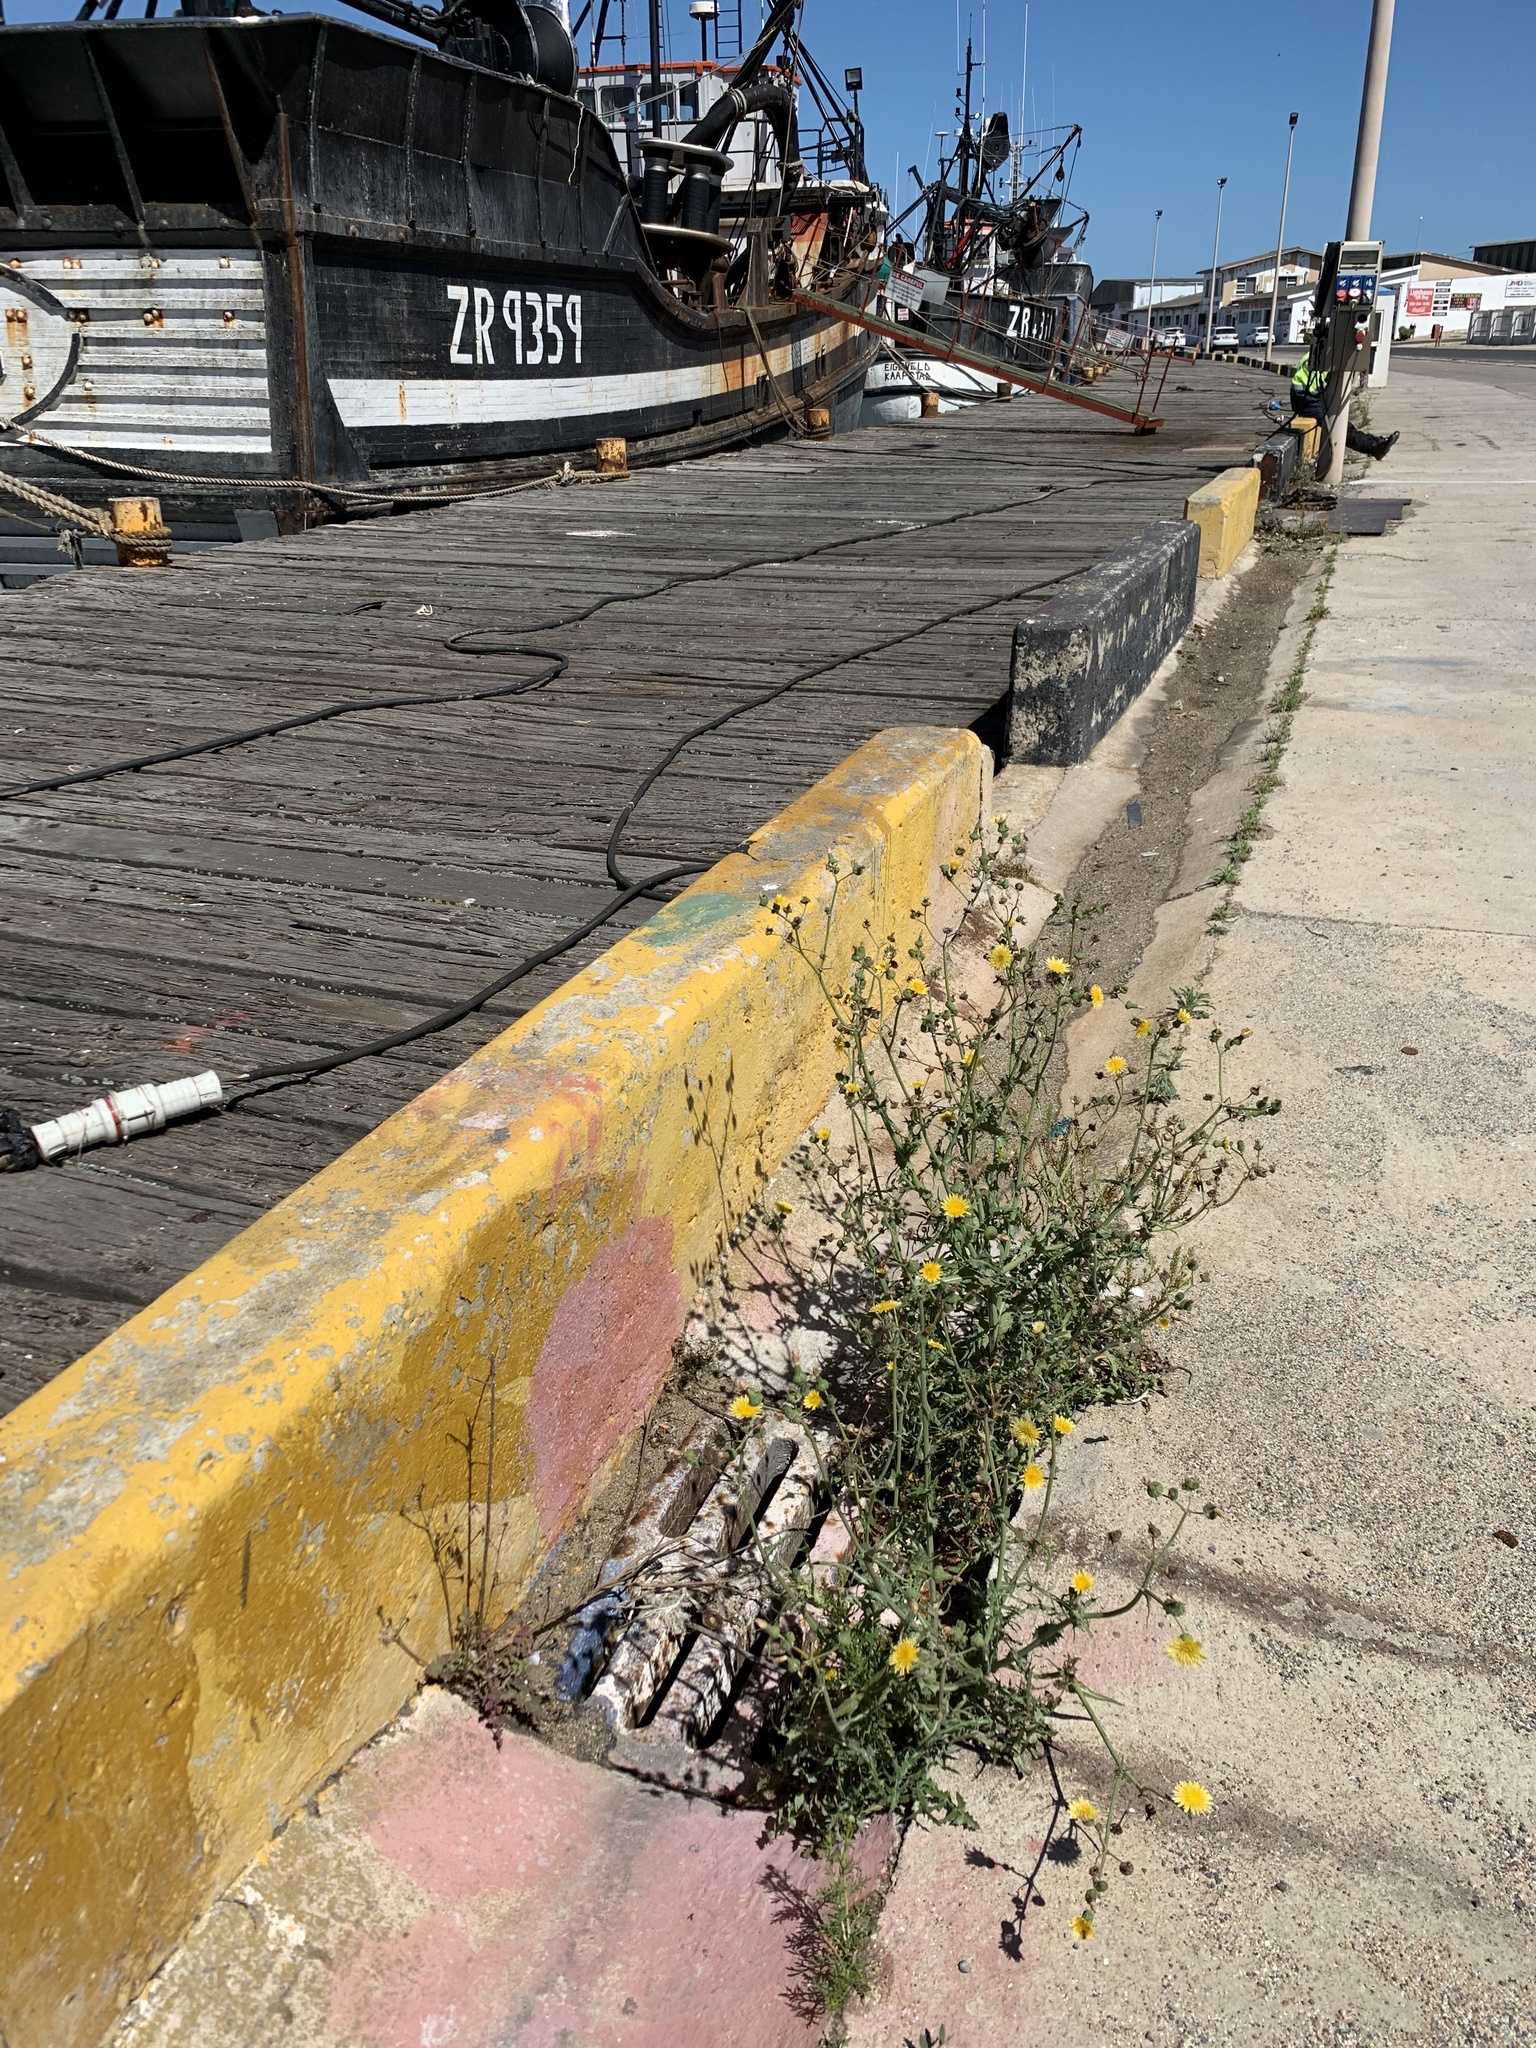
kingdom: Plantae
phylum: Tracheophyta
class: Magnoliopsida
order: Asterales
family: Asteraceae
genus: Sonchus
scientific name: Sonchus oleraceus
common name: Common sowthistle
